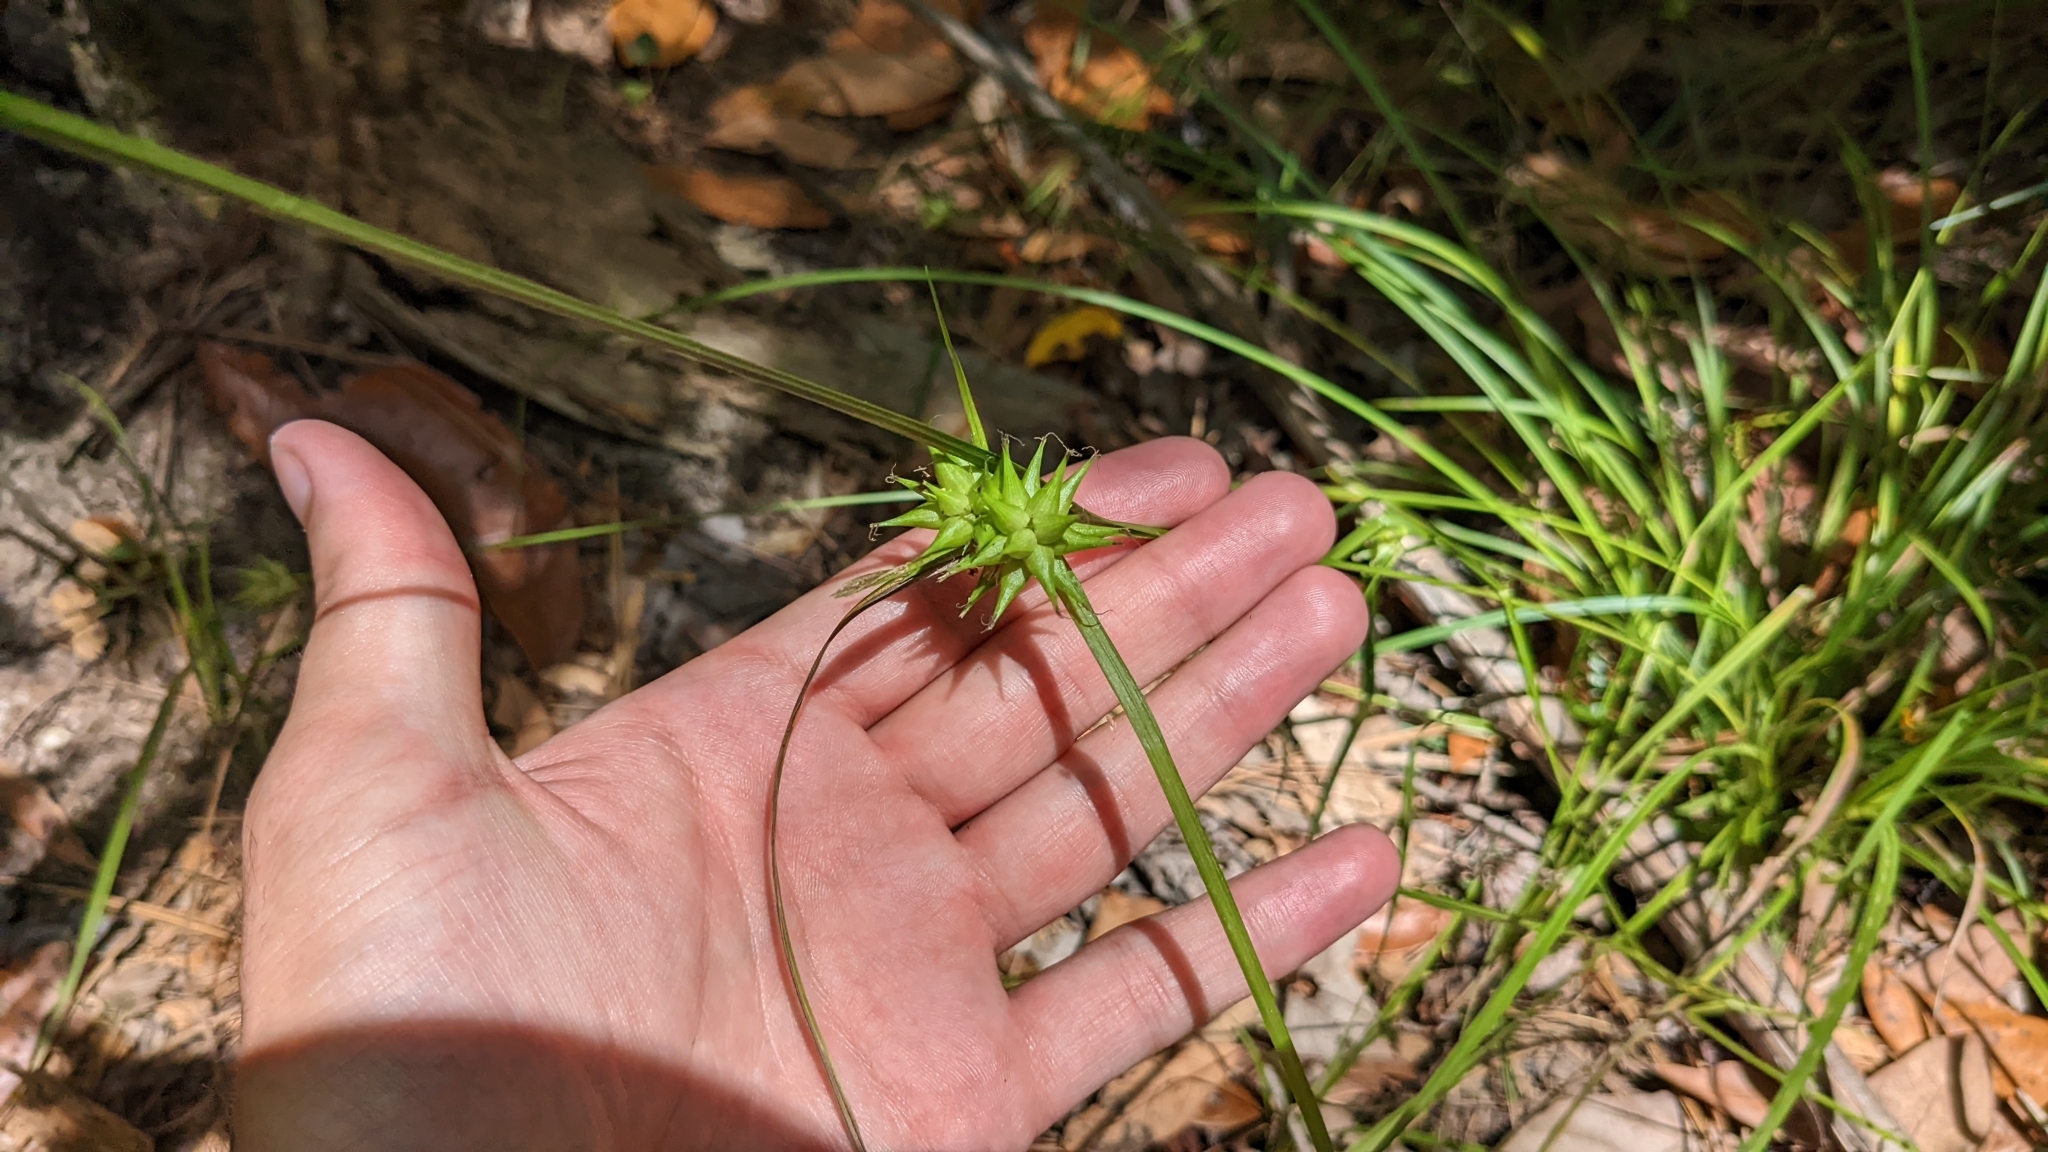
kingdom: Plantae
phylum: Tracheophyta
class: Liliopsida
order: Poales
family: Cyperaceae
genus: Carex
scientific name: Carex intumescens
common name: Greater bladder sedge
